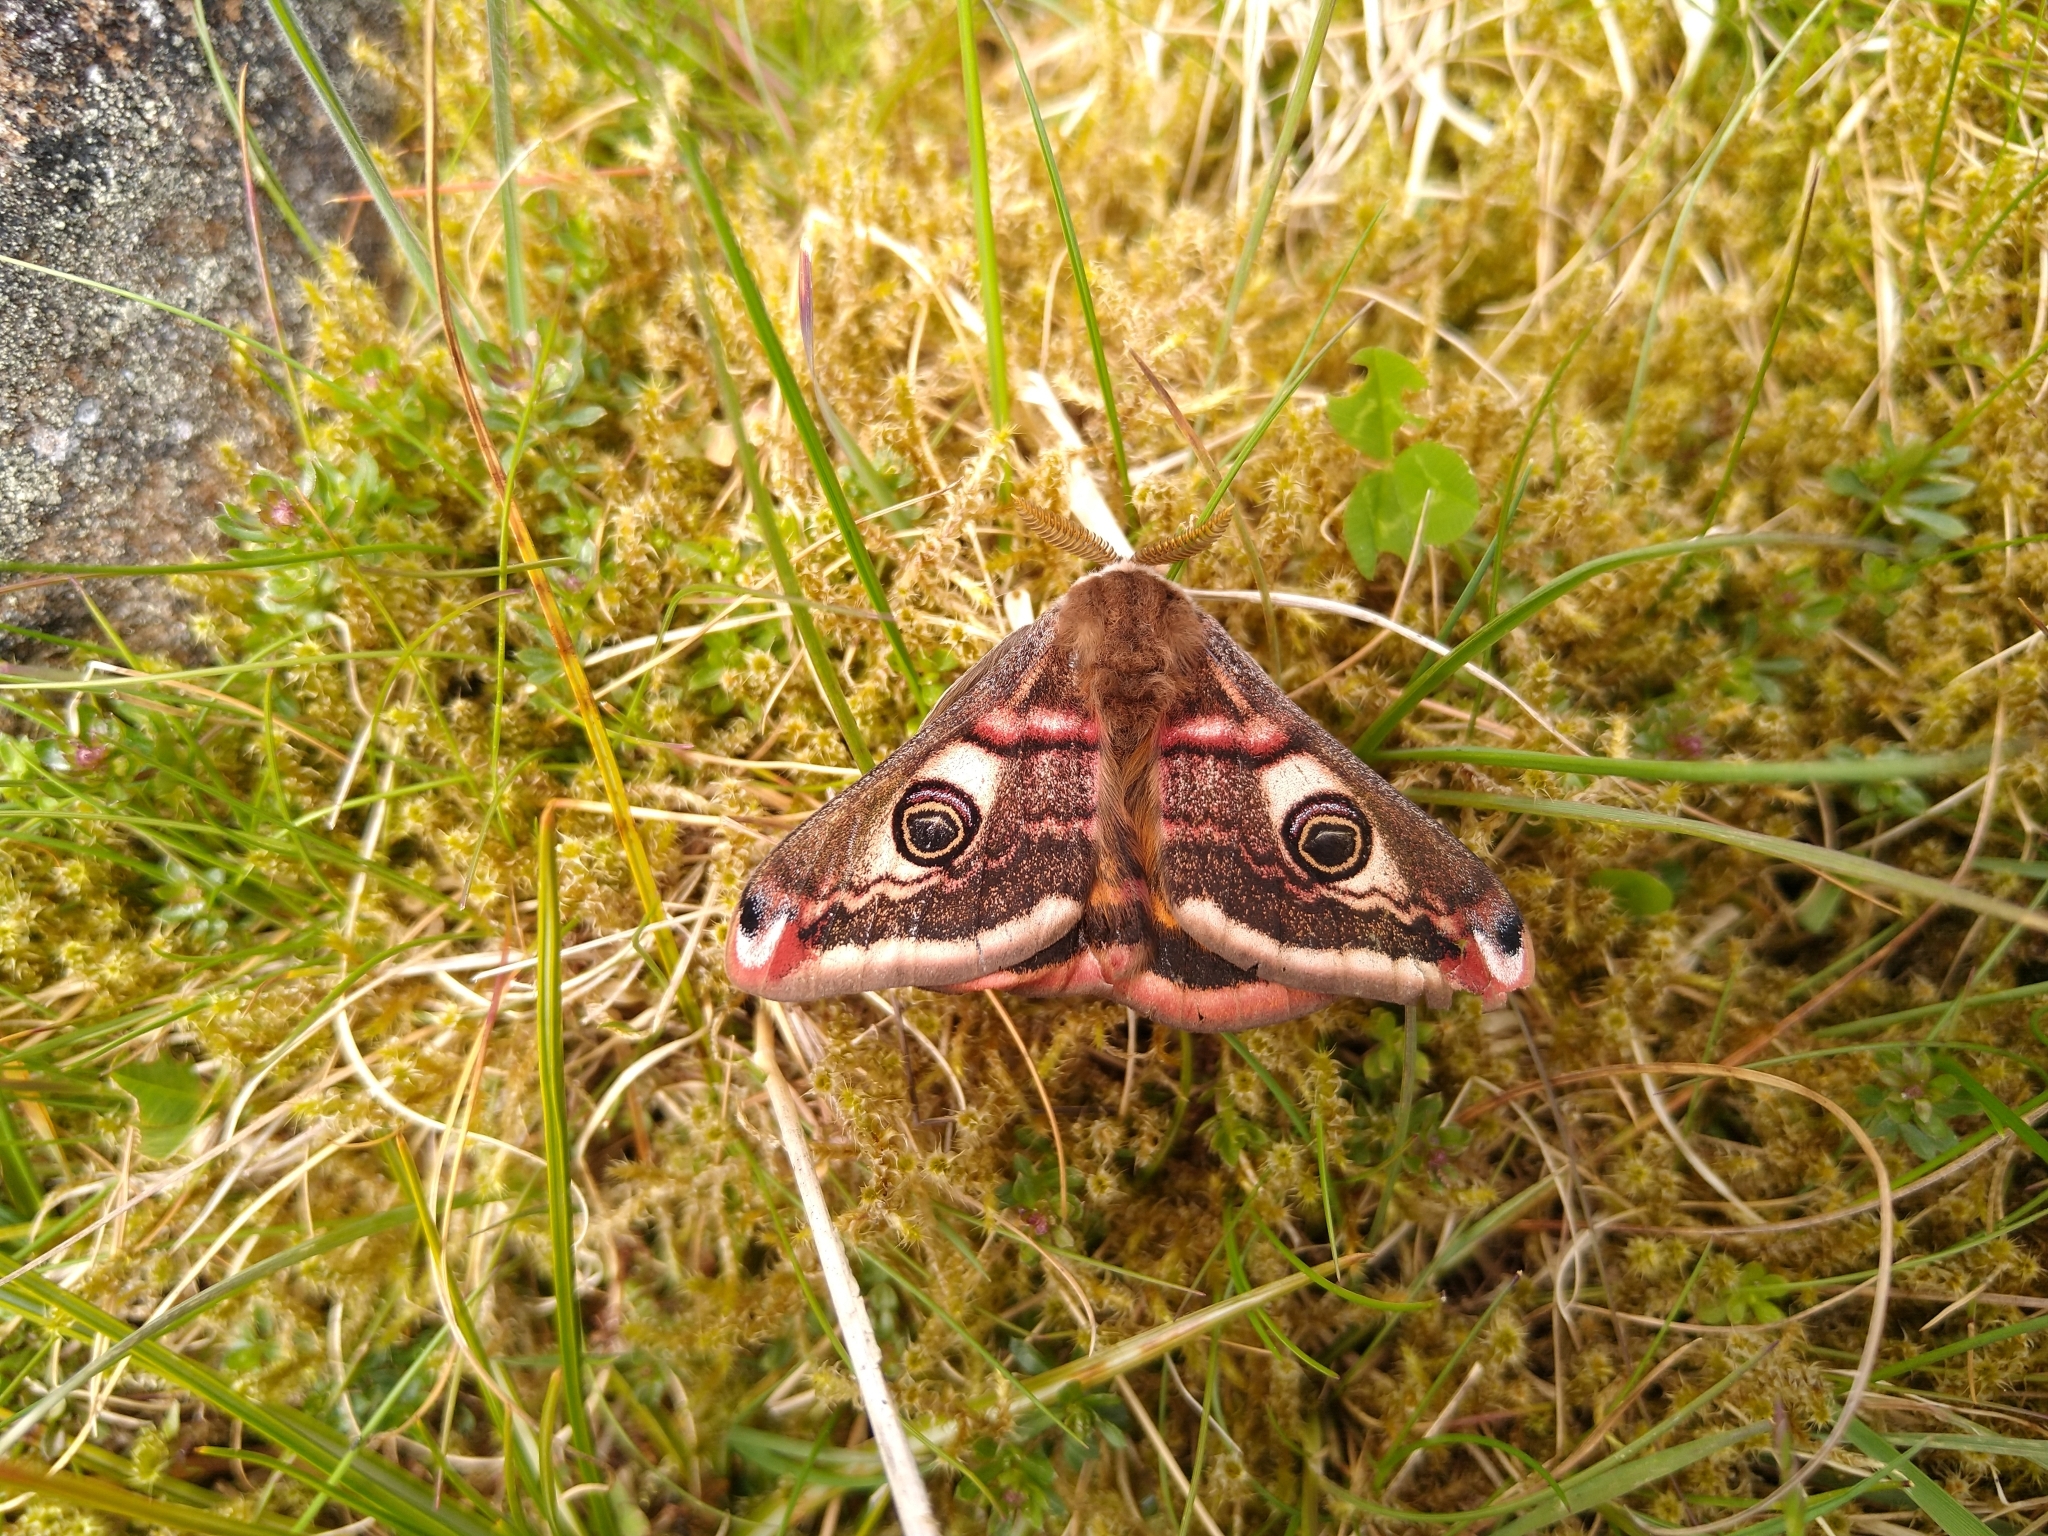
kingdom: Animalia
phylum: Arthropoda
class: Insecta
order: Lepidoptera
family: Saturniidae
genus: Saturnia
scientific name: Saturnia pavonia
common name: Emperor moth
